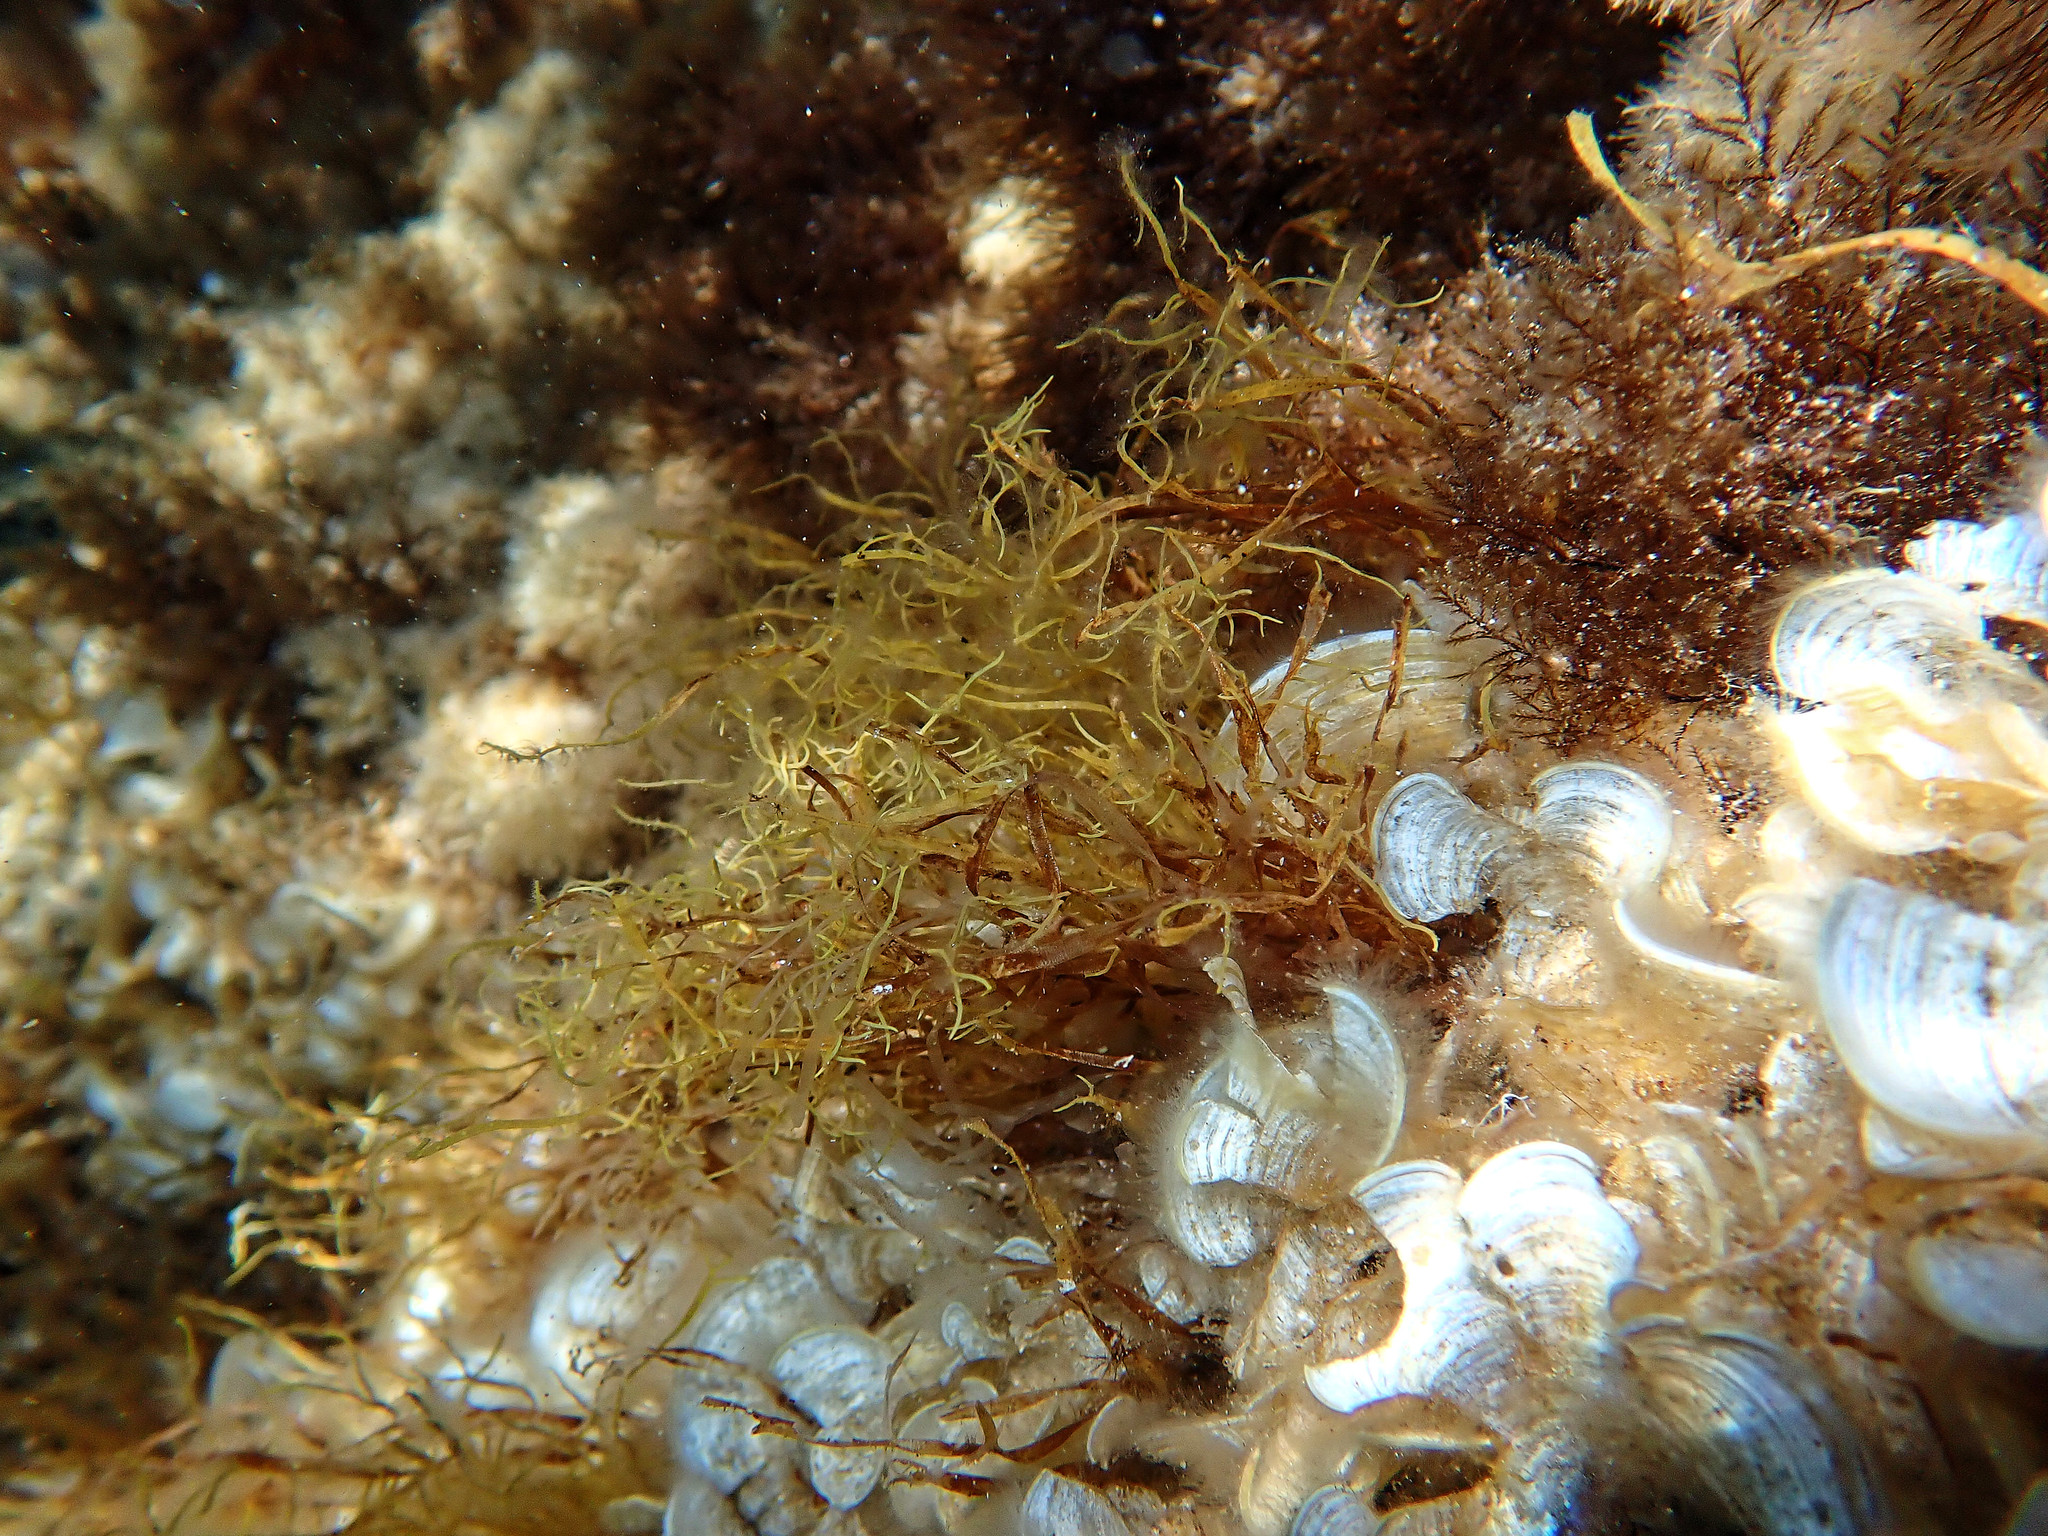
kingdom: Chromista
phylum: Ochrophyta
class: Phaeophyceae
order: Dictyotales
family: Dictyotaceae
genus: Dictyota
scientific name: Dictyota mediterranea
